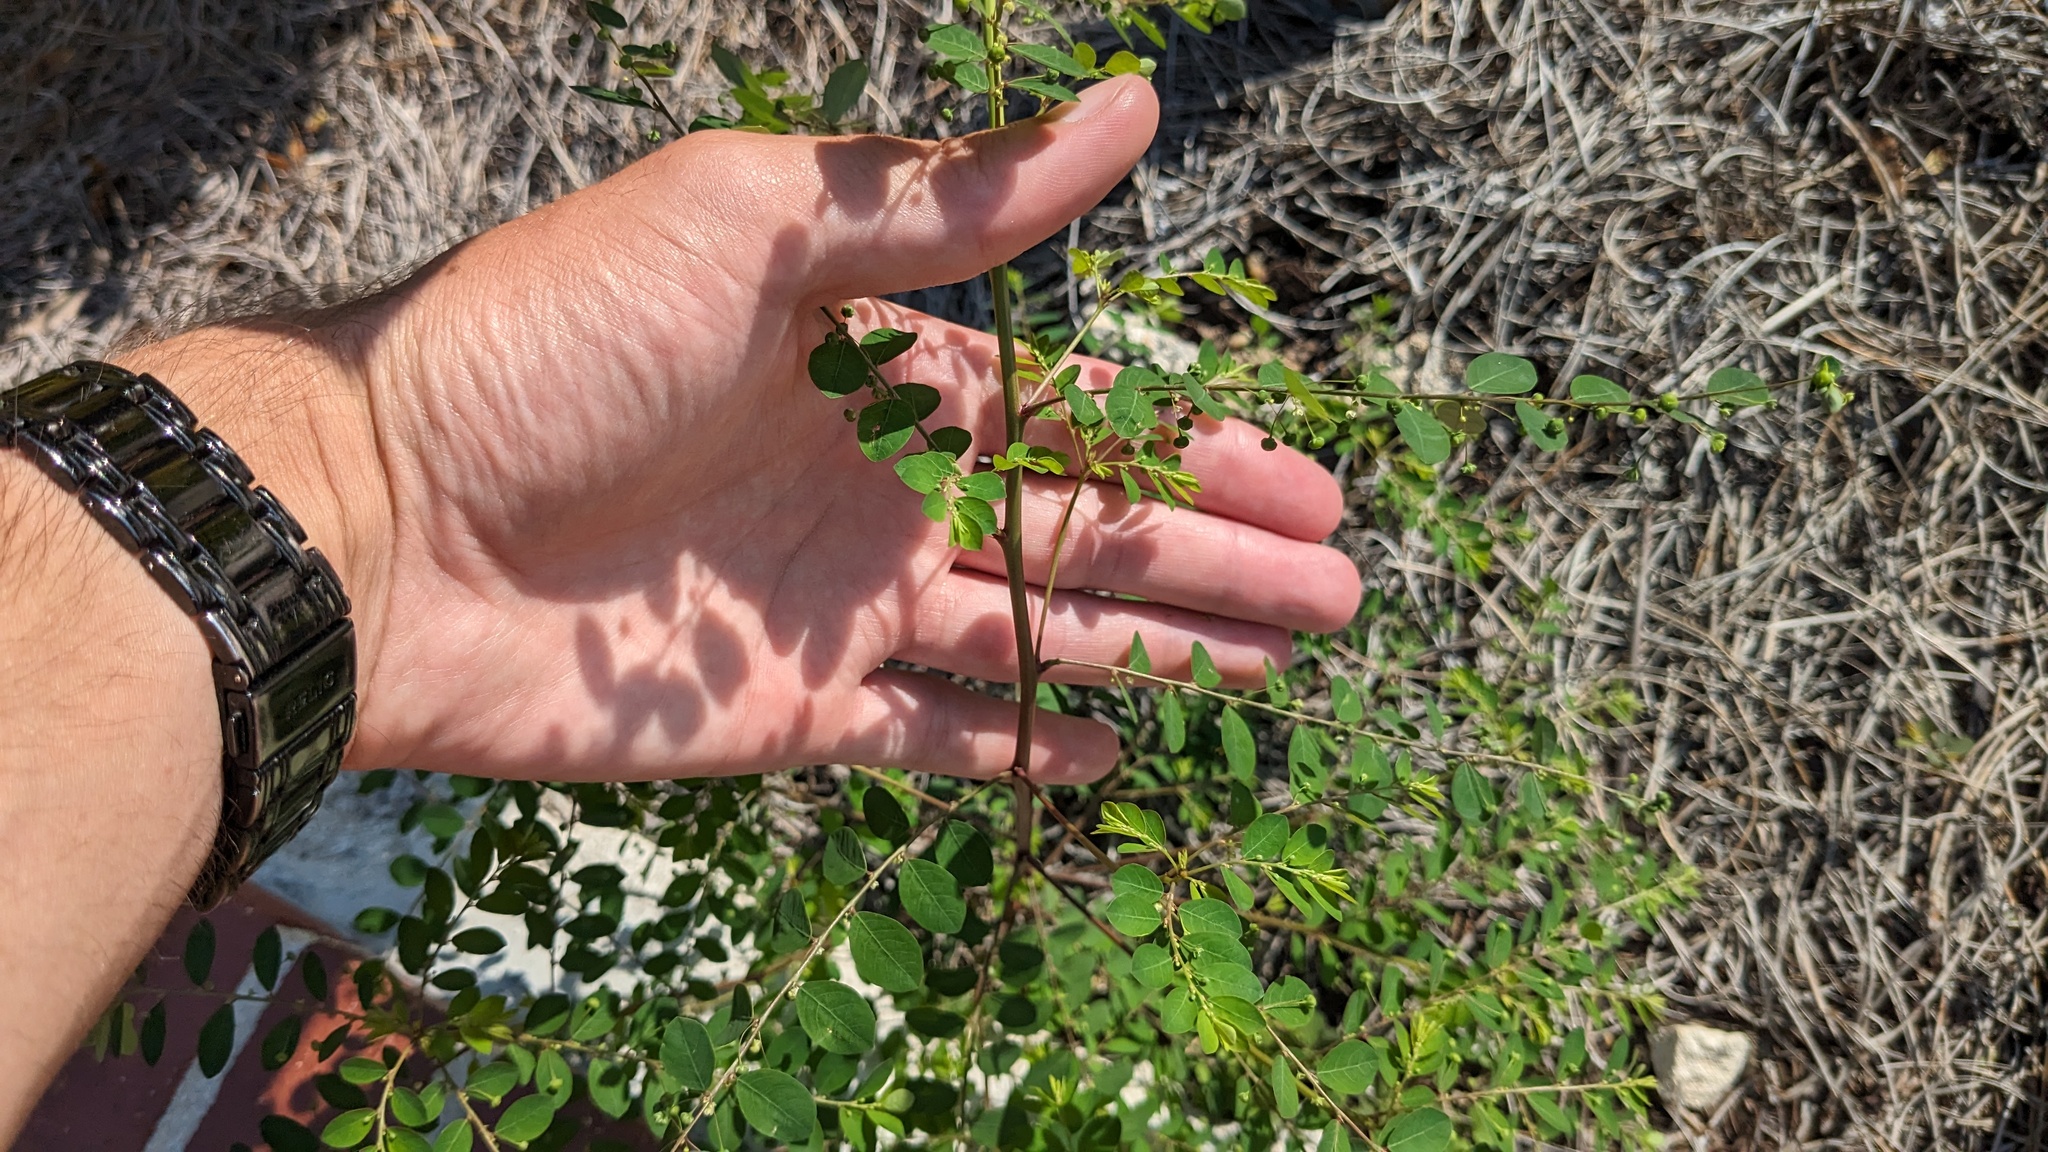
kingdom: Plantae
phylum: Tracheophyta
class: Magnoliopsida
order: Malpighiales
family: Phyllanthaceae
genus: Phyllanthus
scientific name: Phyllanthus tenellus
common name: Mascarene island leaf-flower
